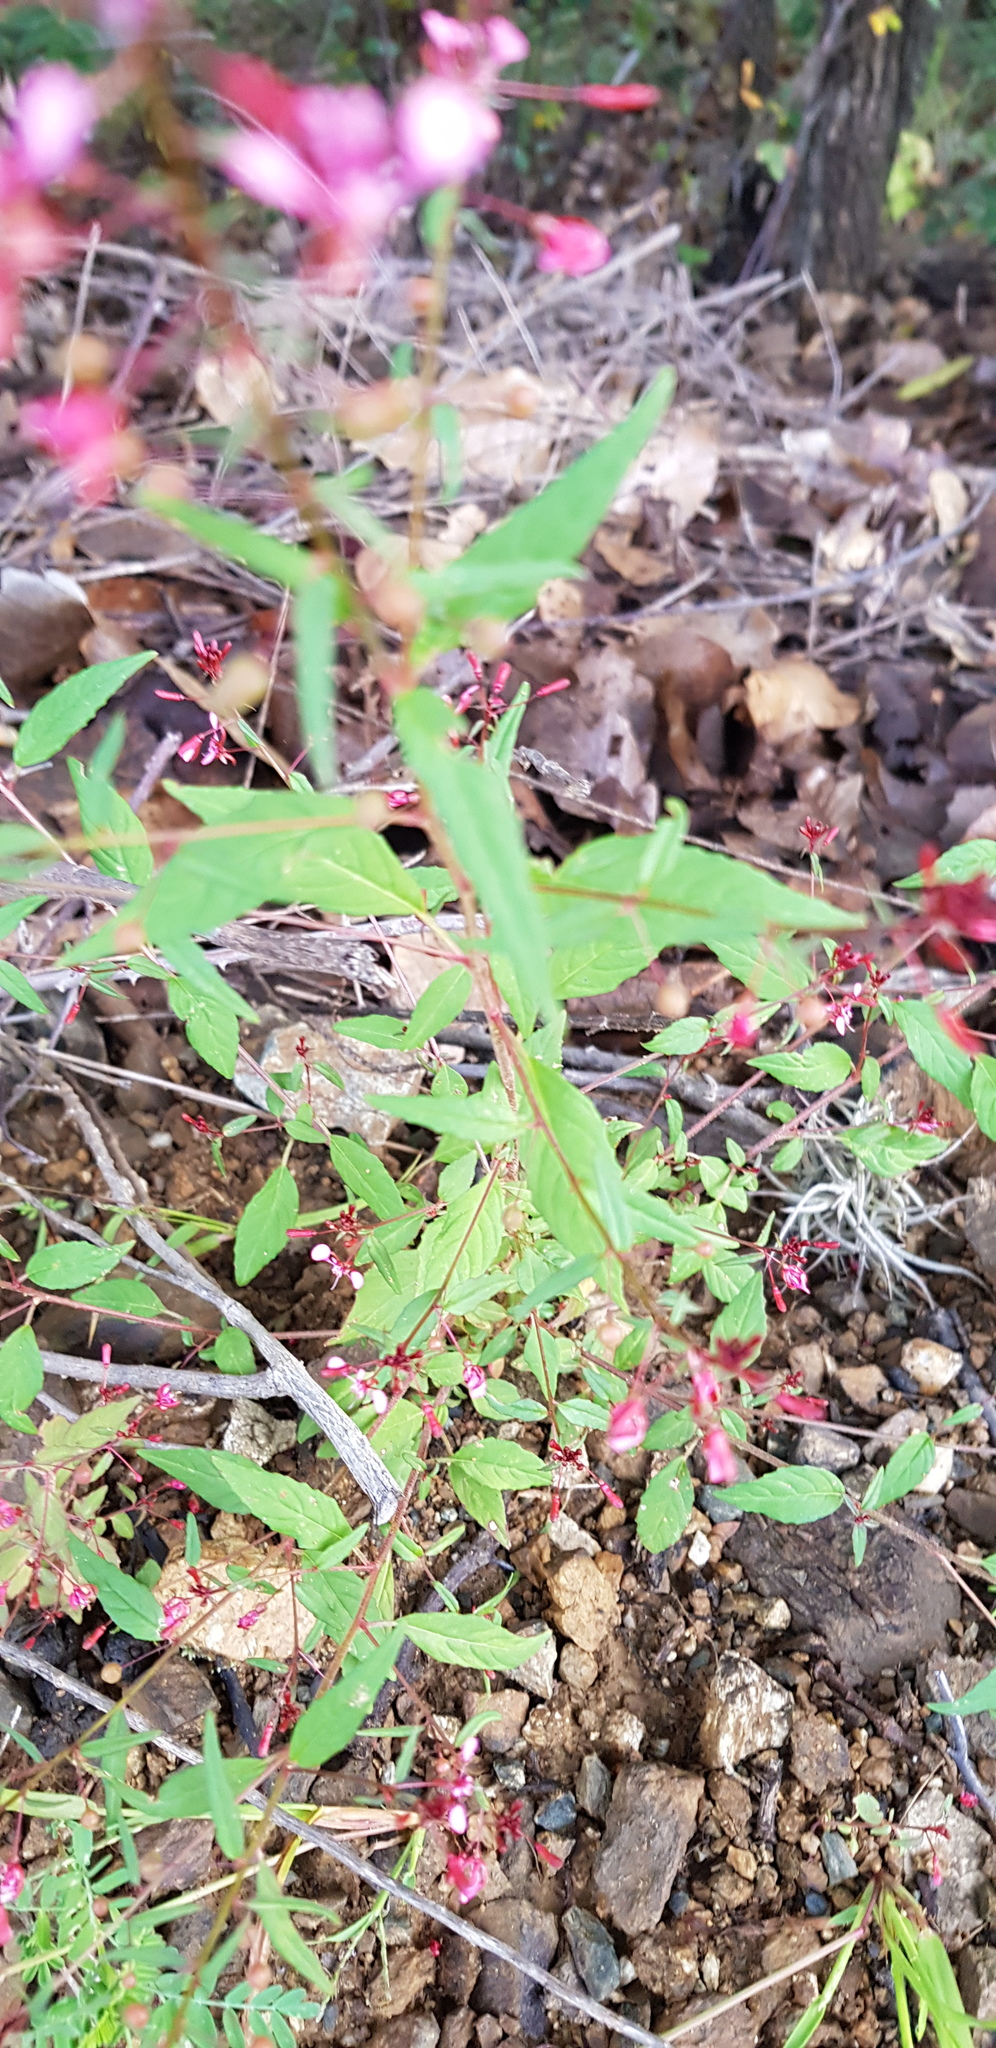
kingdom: Plantae
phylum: Tracheophyta
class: Magnoliopsida
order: Myrtales
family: Onagraceae
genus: Lopezia
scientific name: Lopezia racemosa
